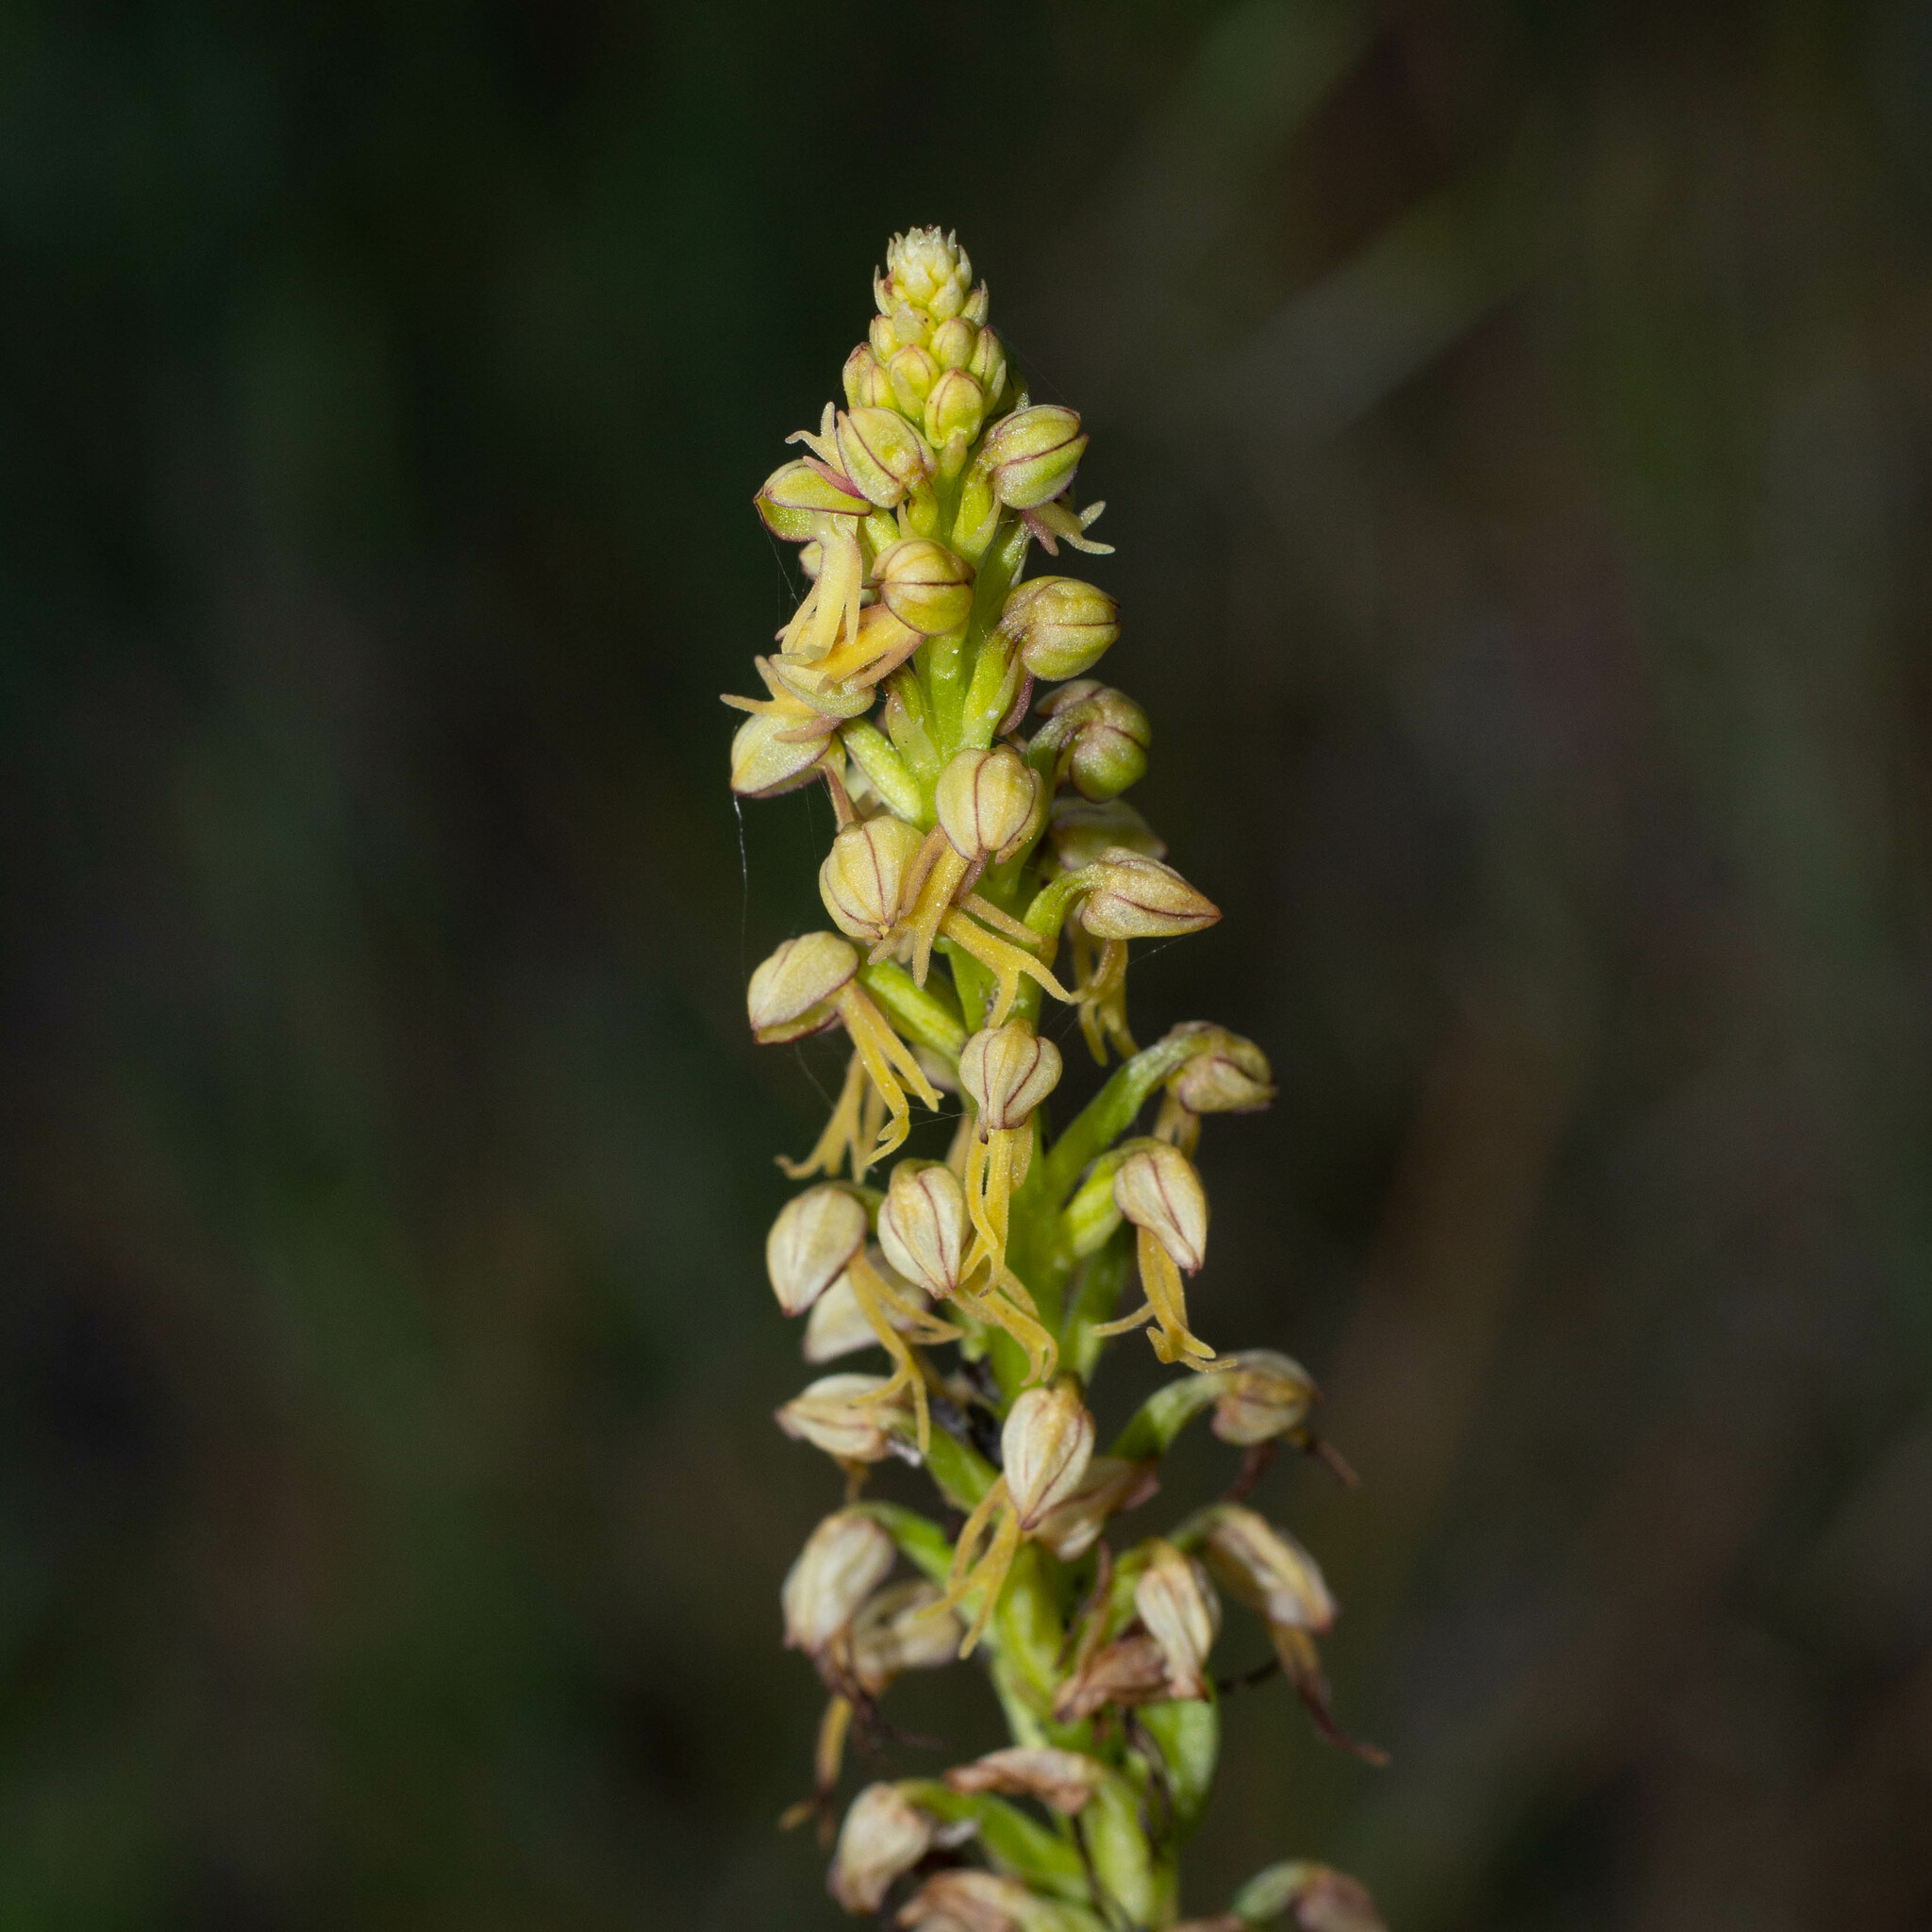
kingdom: Plantae
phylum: Tracheophyta
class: Liliopsida
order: Asparagales
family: Orchidaceae
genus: Orchis
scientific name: Orchis anthropophora
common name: Man orchid
